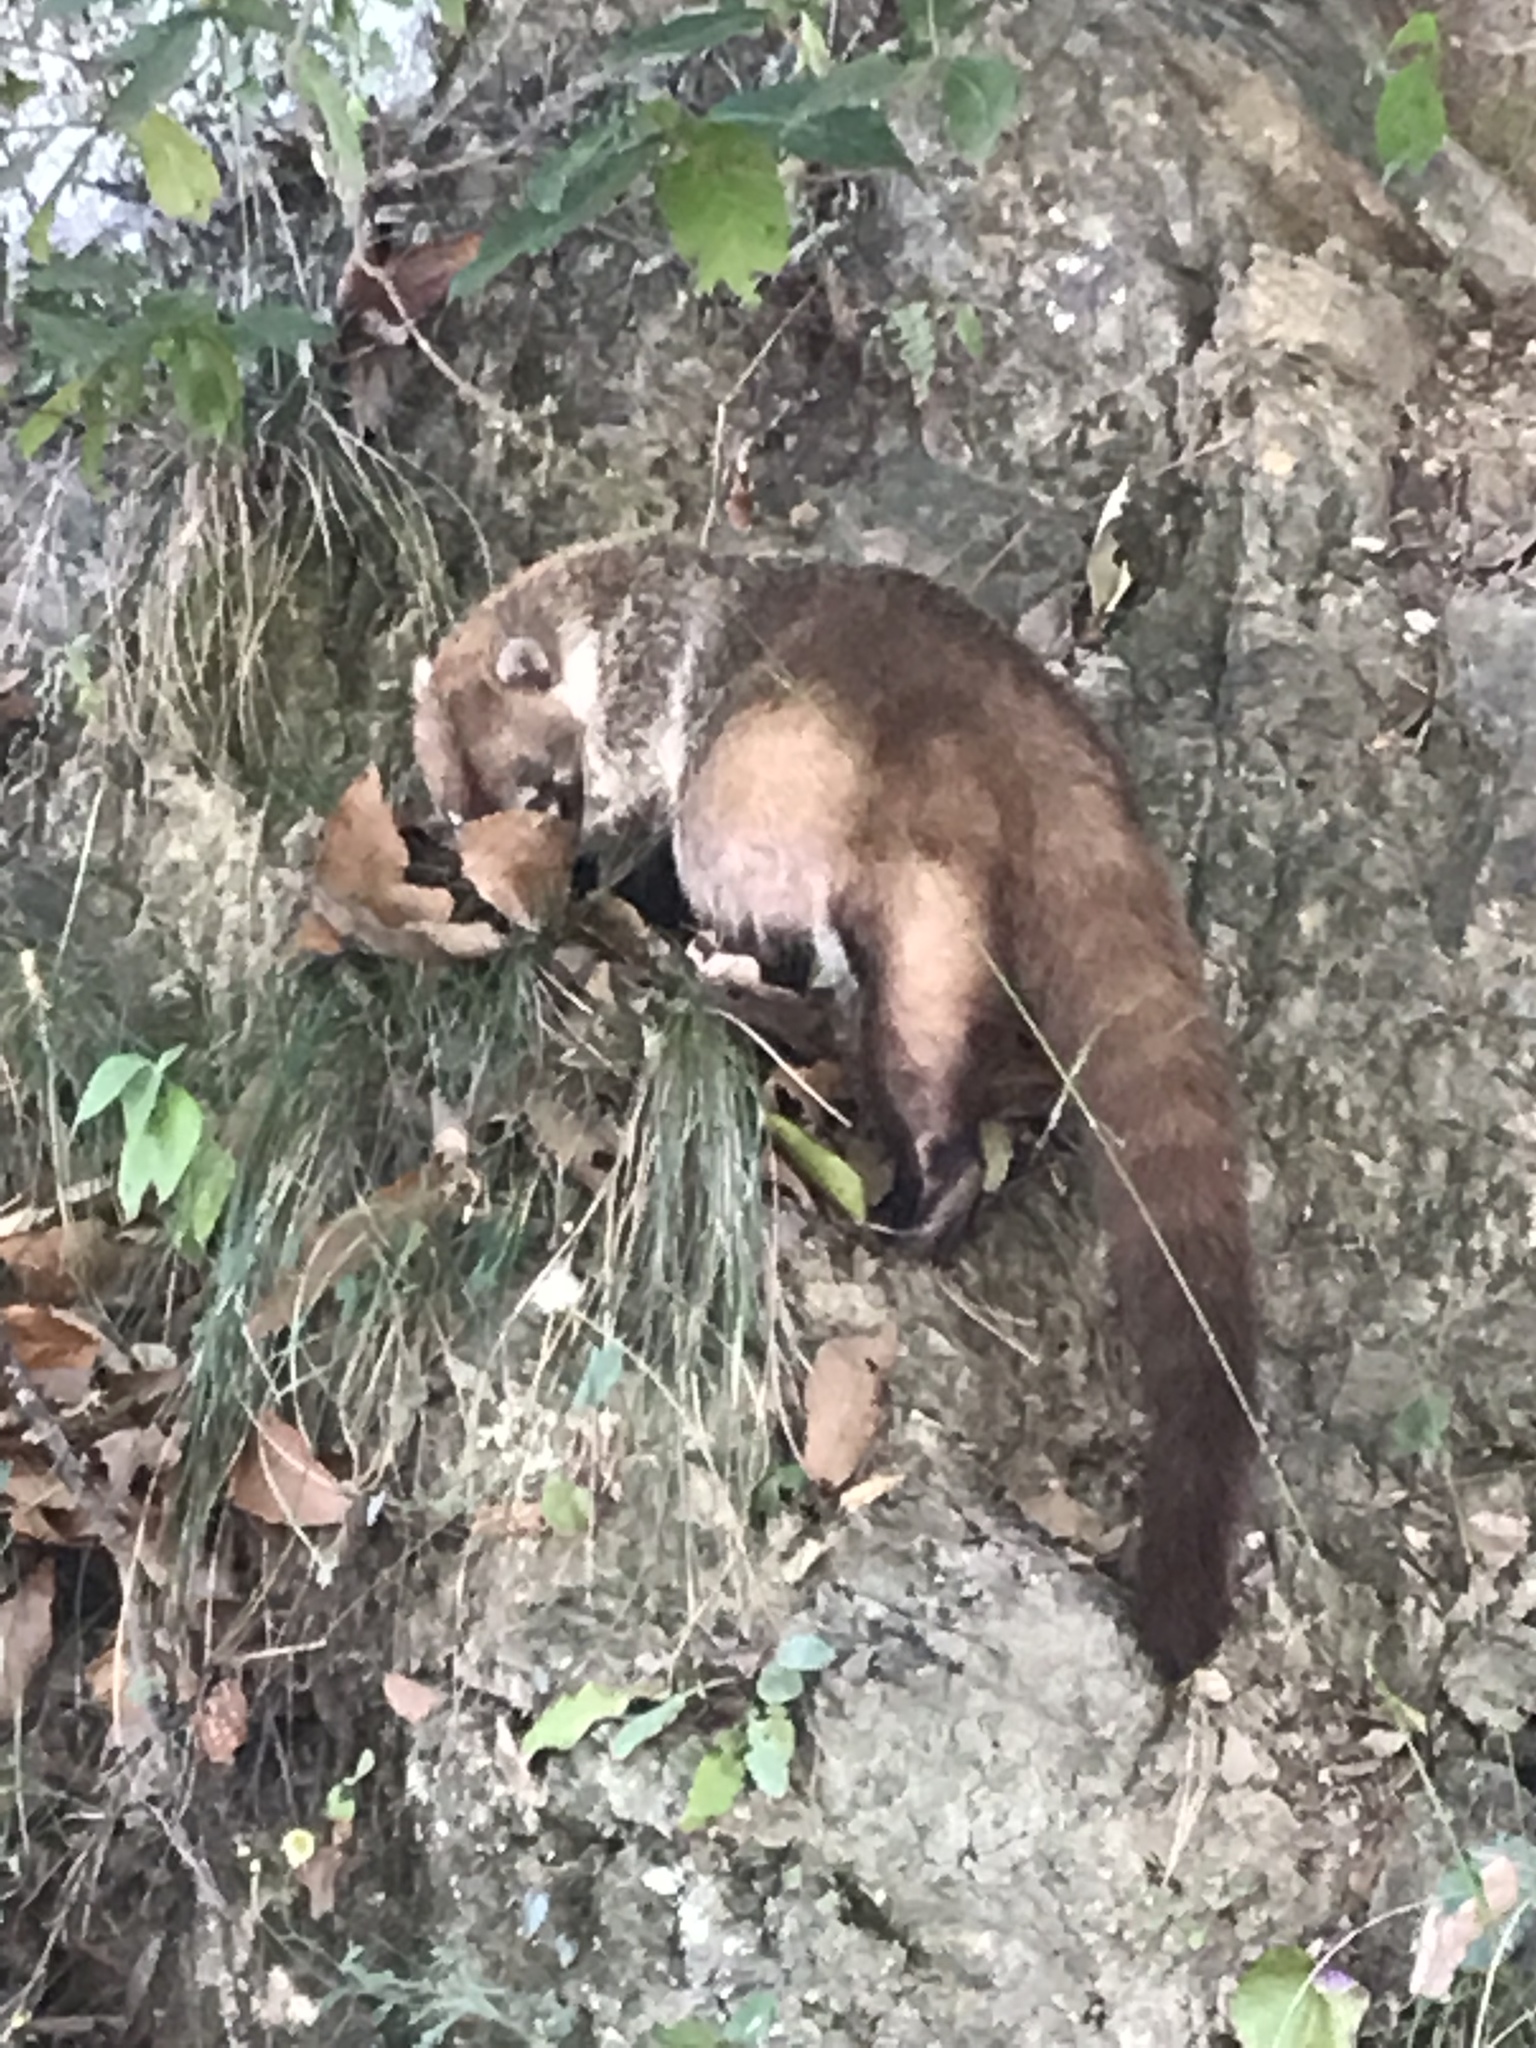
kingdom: Animalia
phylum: Chordata
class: Mammalia
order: Carnivora
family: Procyonidae
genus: Nasua
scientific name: Nasua narica
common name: White-nosed coati
